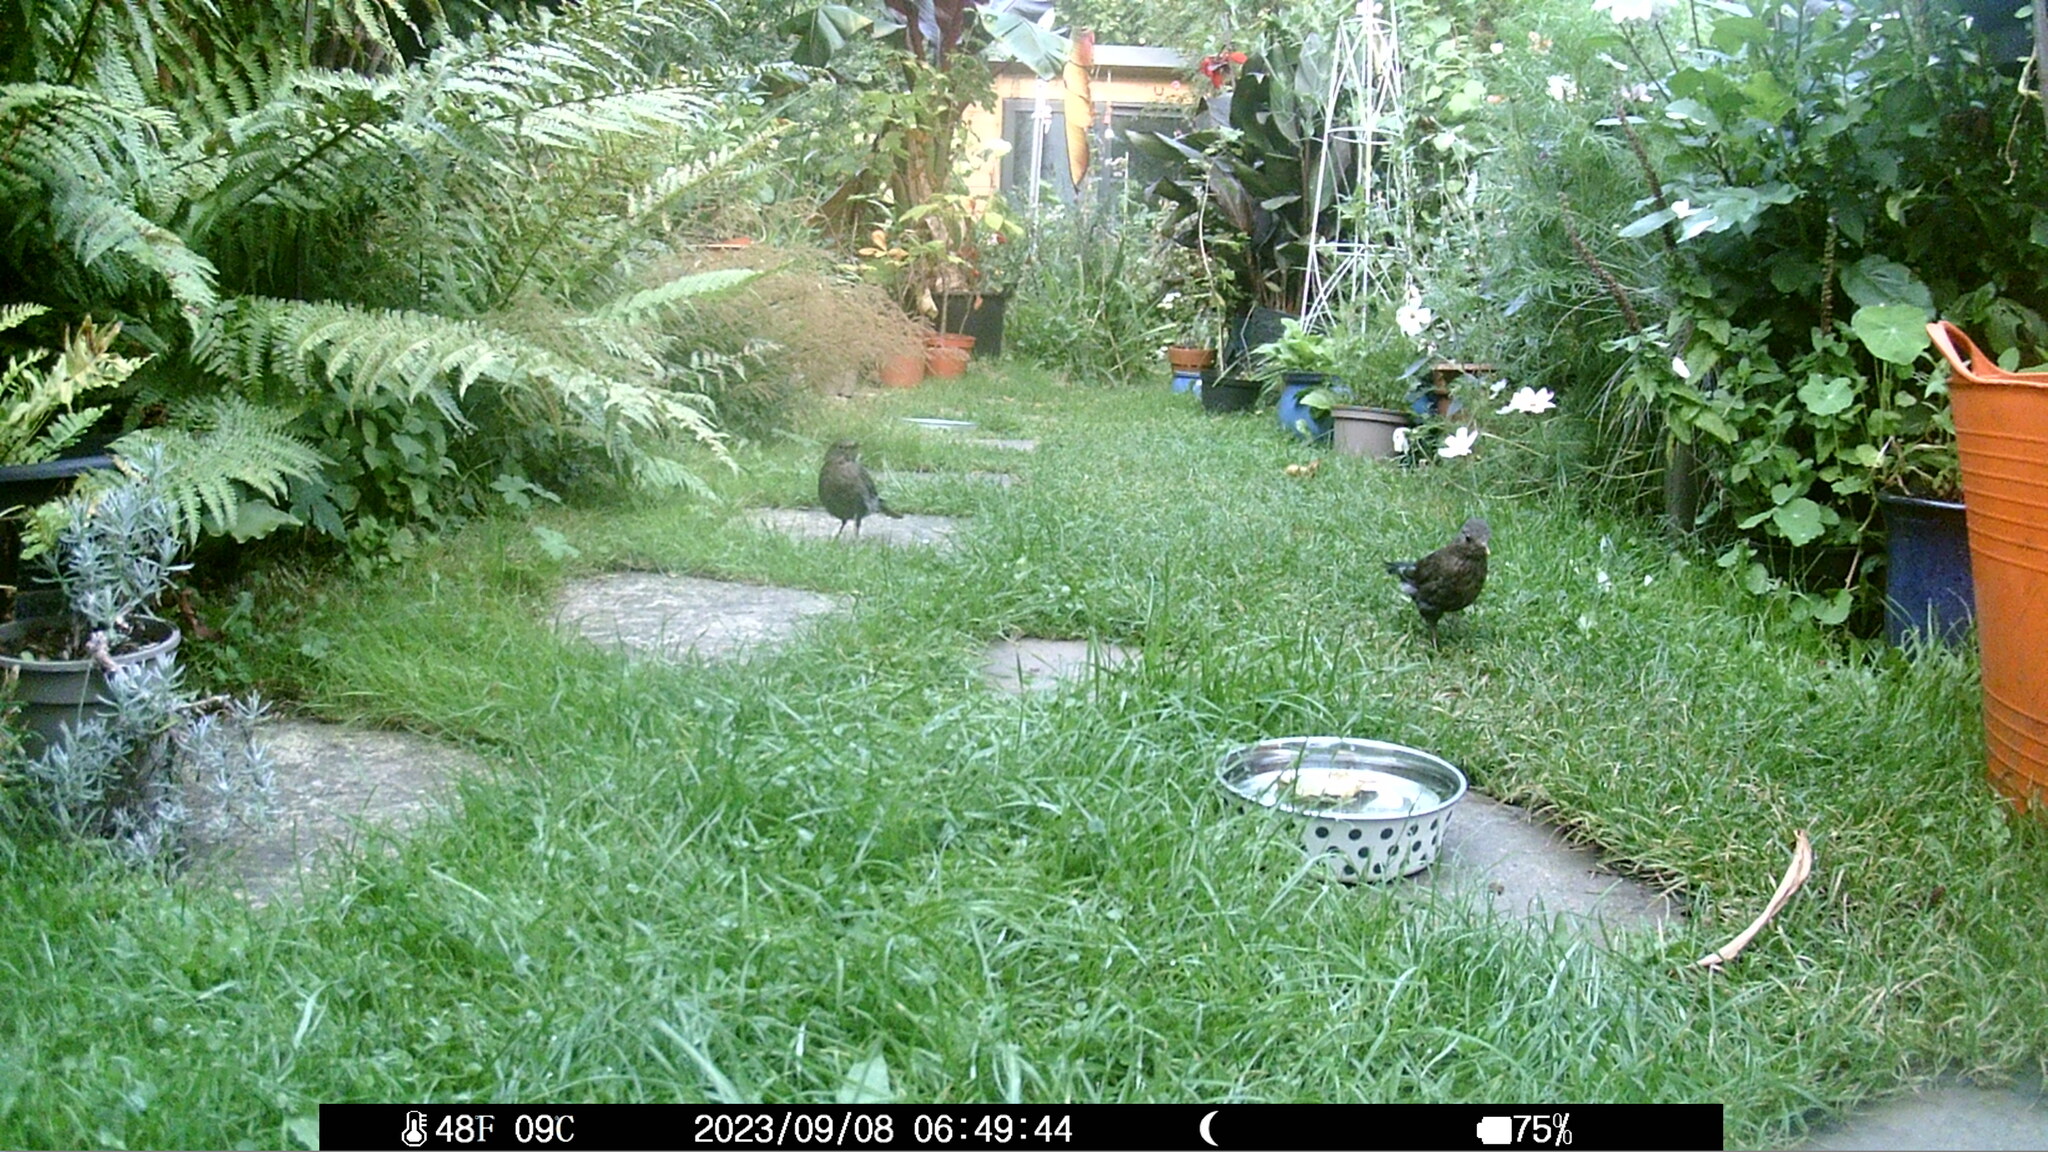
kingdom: Animalia
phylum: Chordata
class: Aves
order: Passeriformes
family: Turdidae
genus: Turdus
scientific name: Turdus merula
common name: Common blackbird
